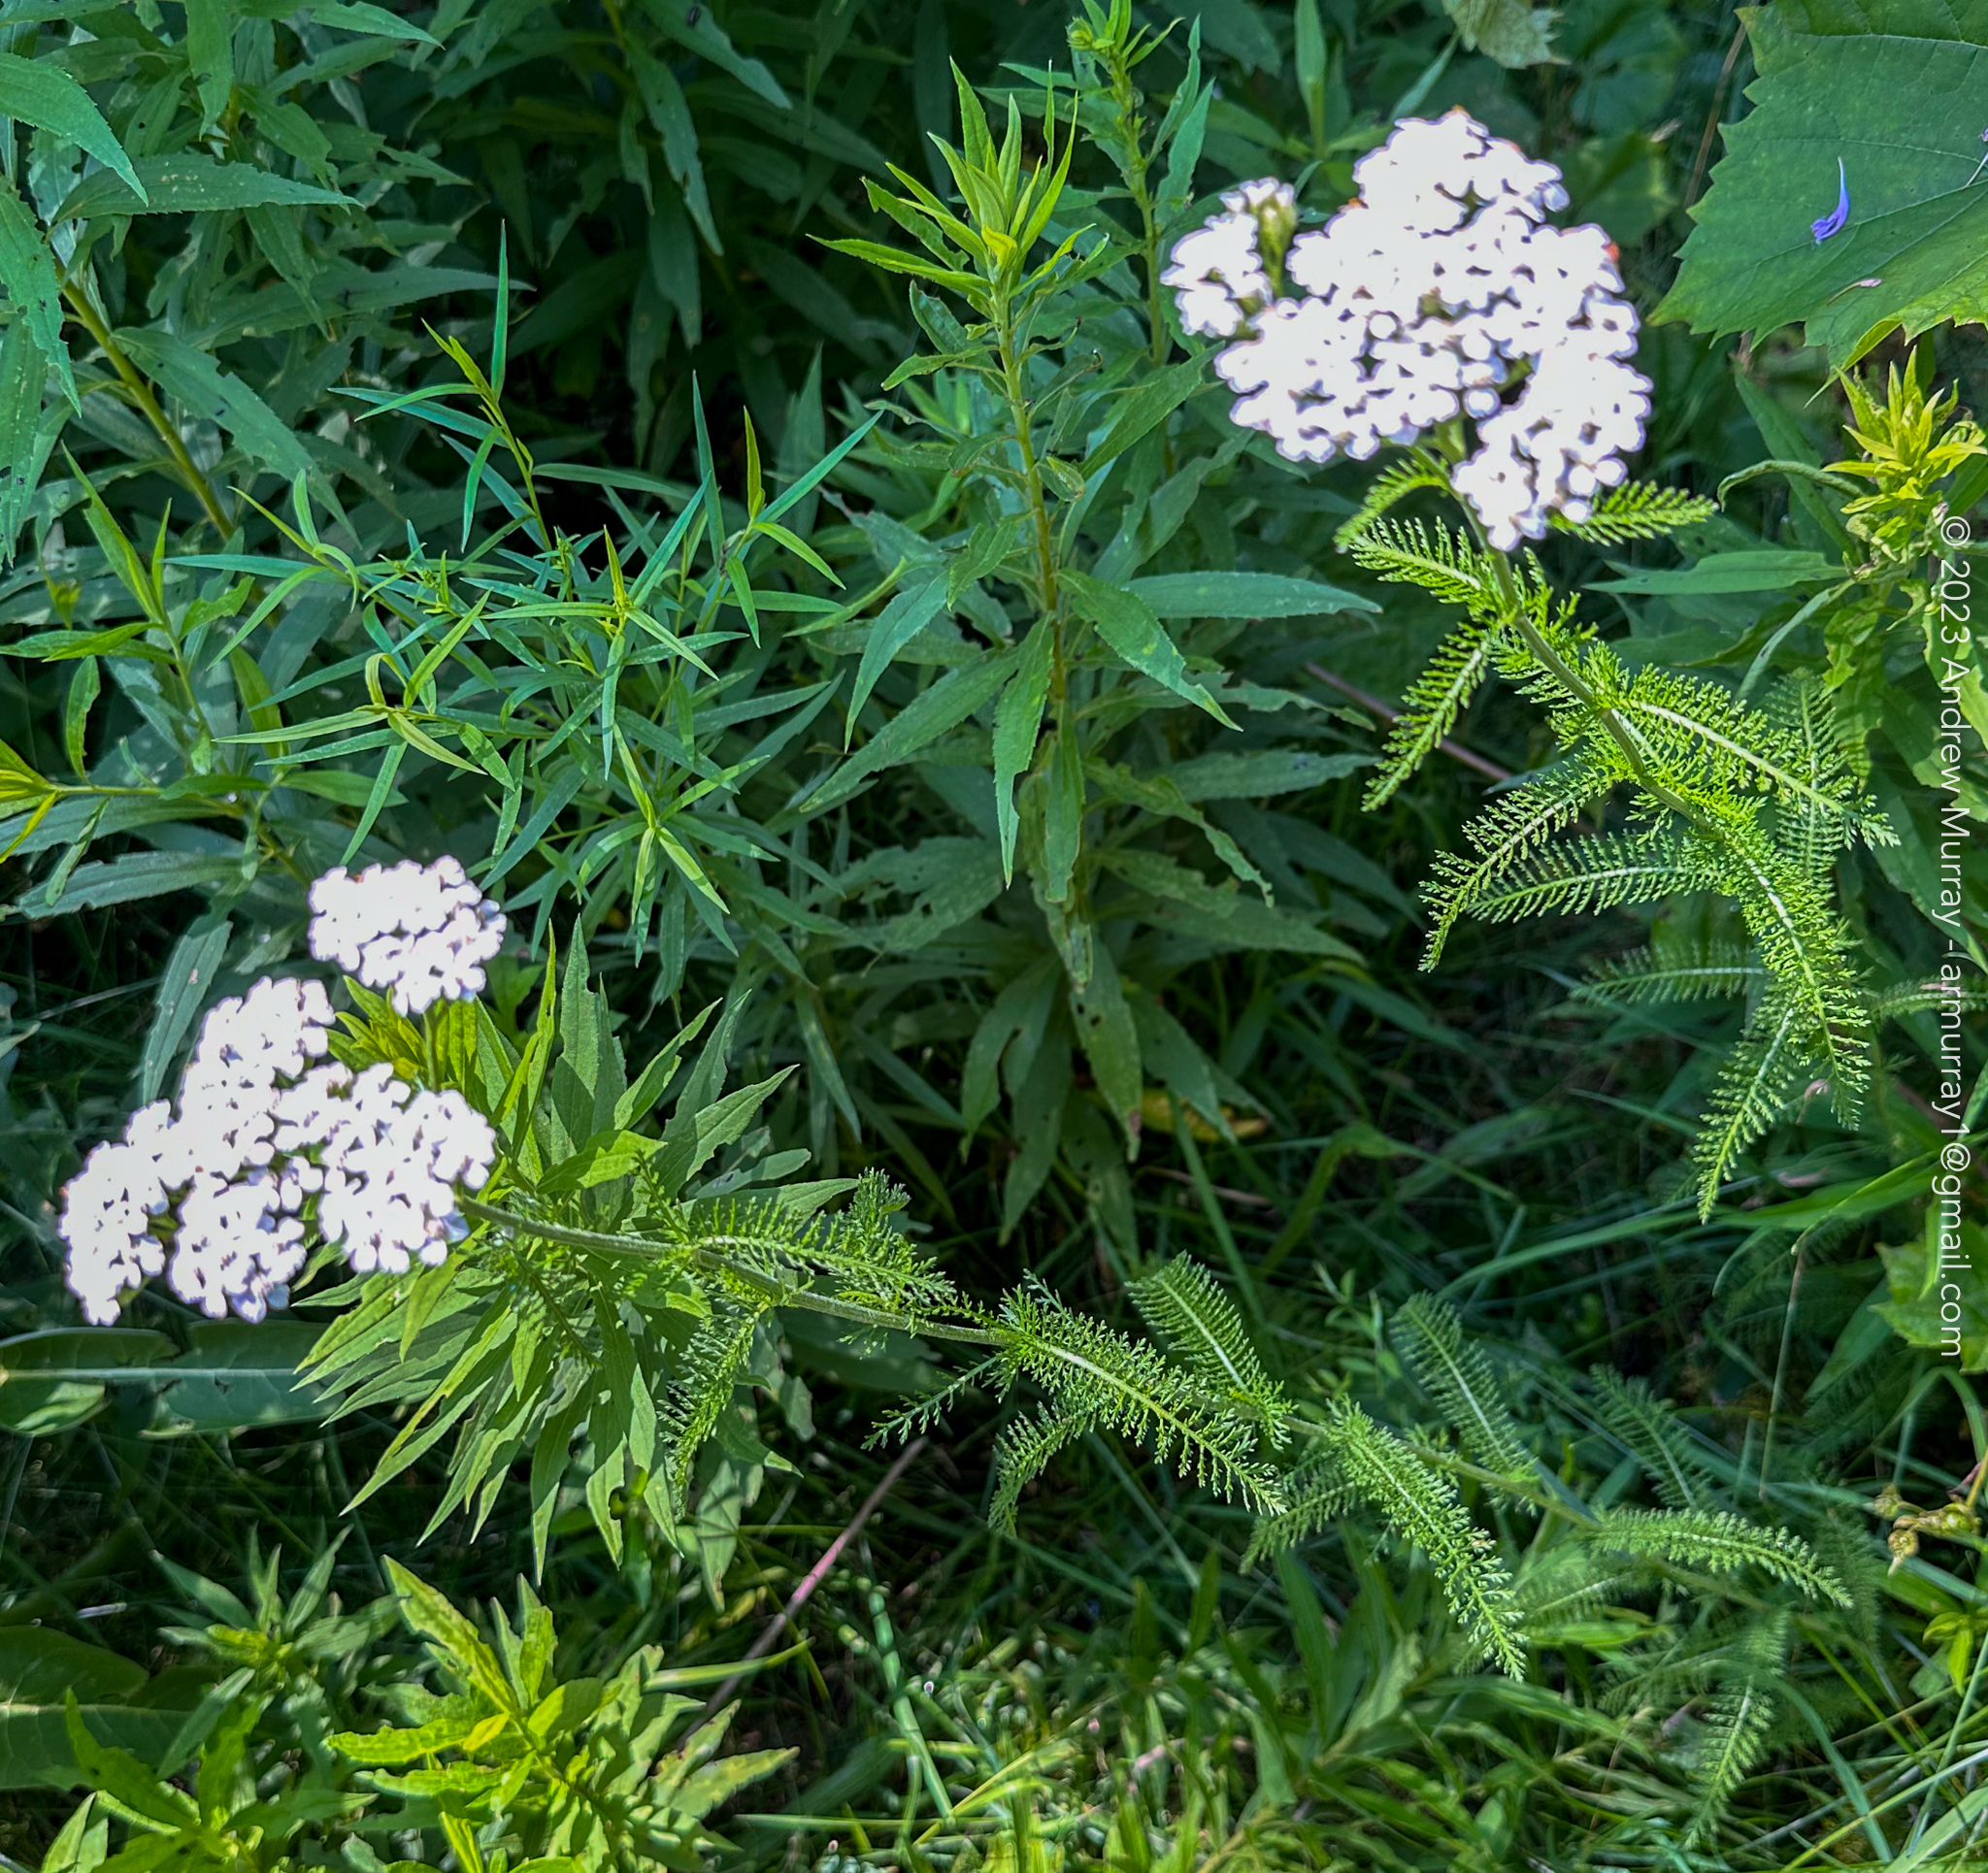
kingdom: Plantae
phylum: Tracheophyta
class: Magnoliopsida
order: Asterales
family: Asteraceae
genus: Achillea
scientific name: Achillea millefolium
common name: Yarrow
